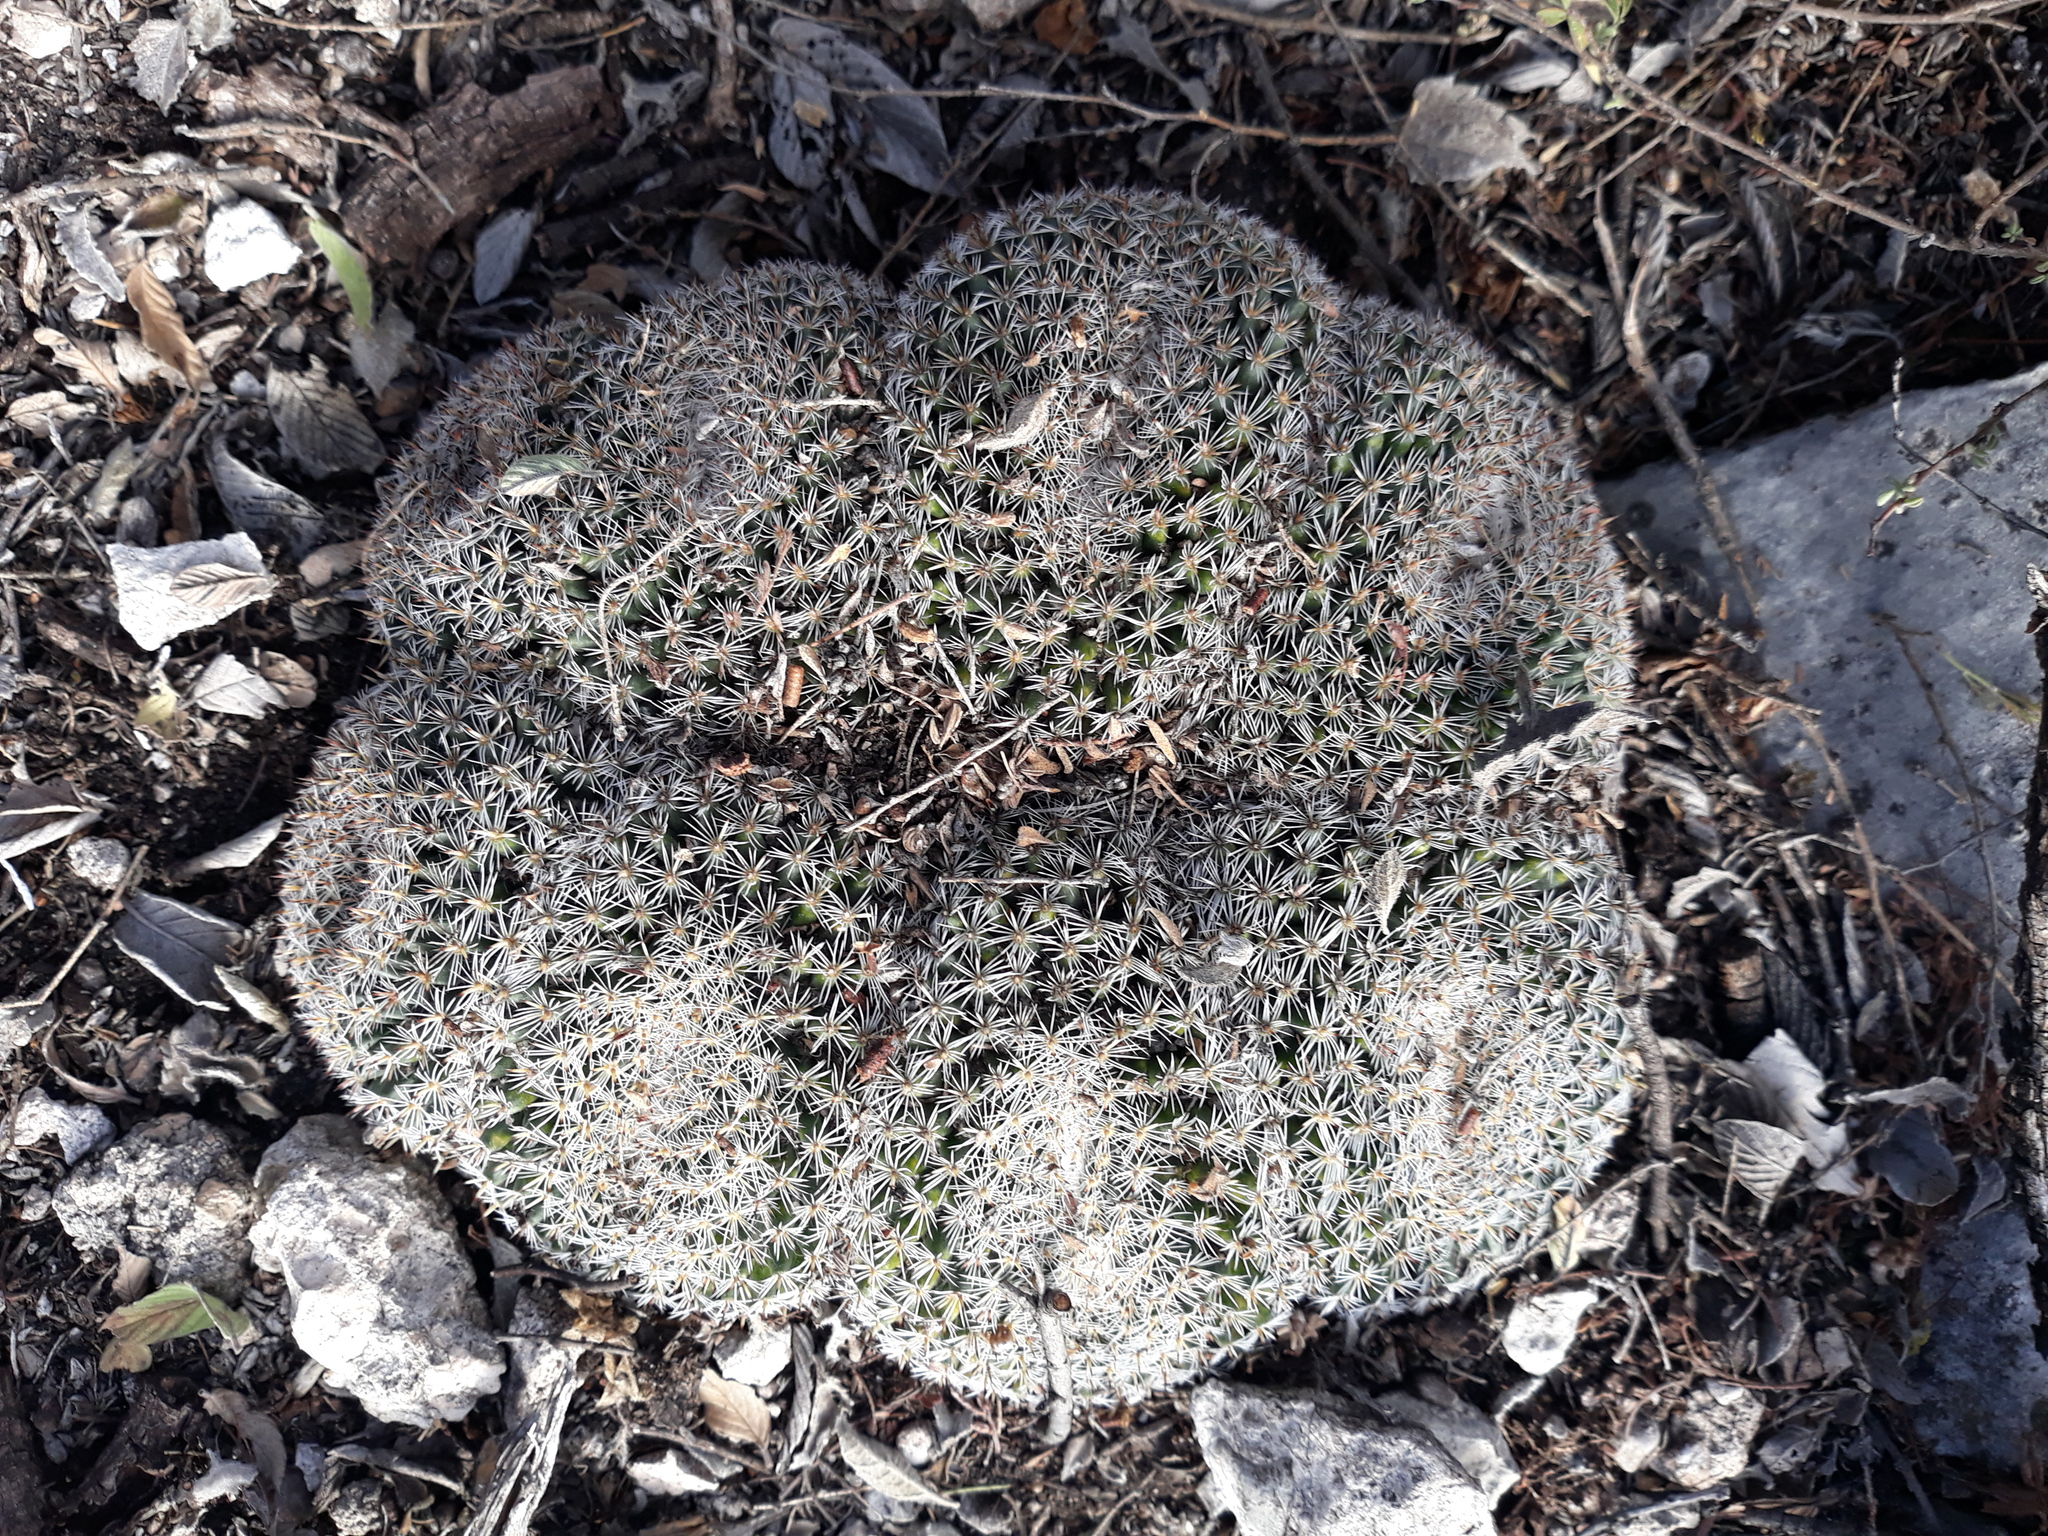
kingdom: Plantae
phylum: Tracheophyta
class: Magnoliopsida
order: Caryophyllales
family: Cactaceae
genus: Mammillaria
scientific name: Mammillaria perbella
